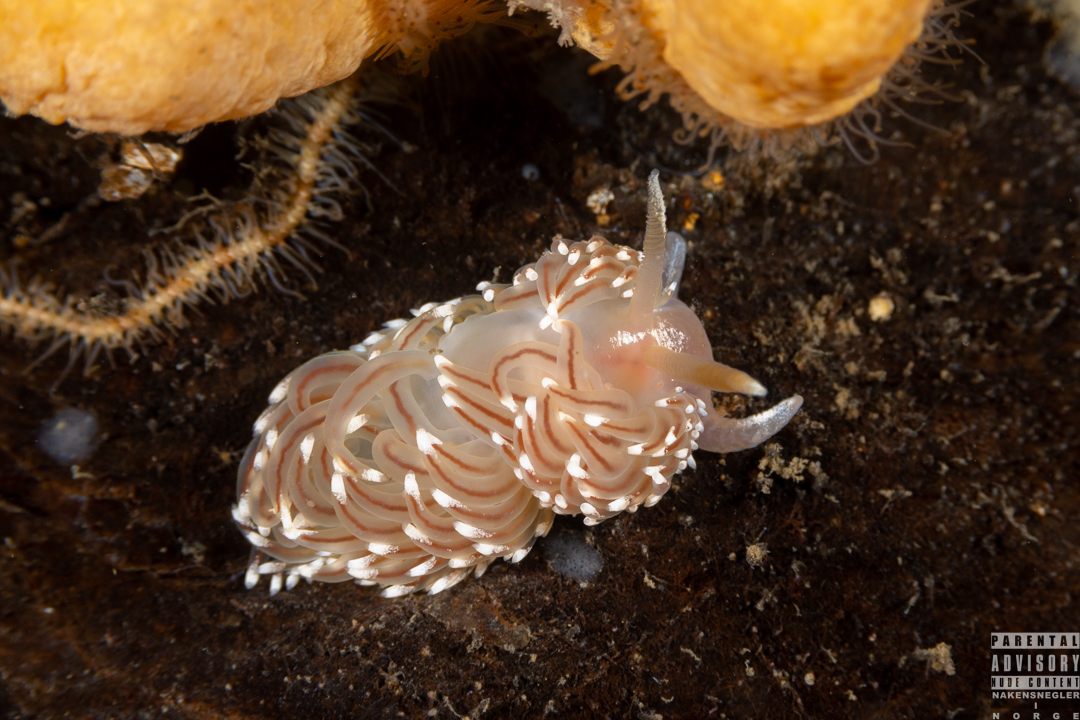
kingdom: Animalia
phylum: Mollusca
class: Gastropoda
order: Nudibranchia
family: Facelinidae
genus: Facelina
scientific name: Facelina bostoniensis
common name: Boston facelina
